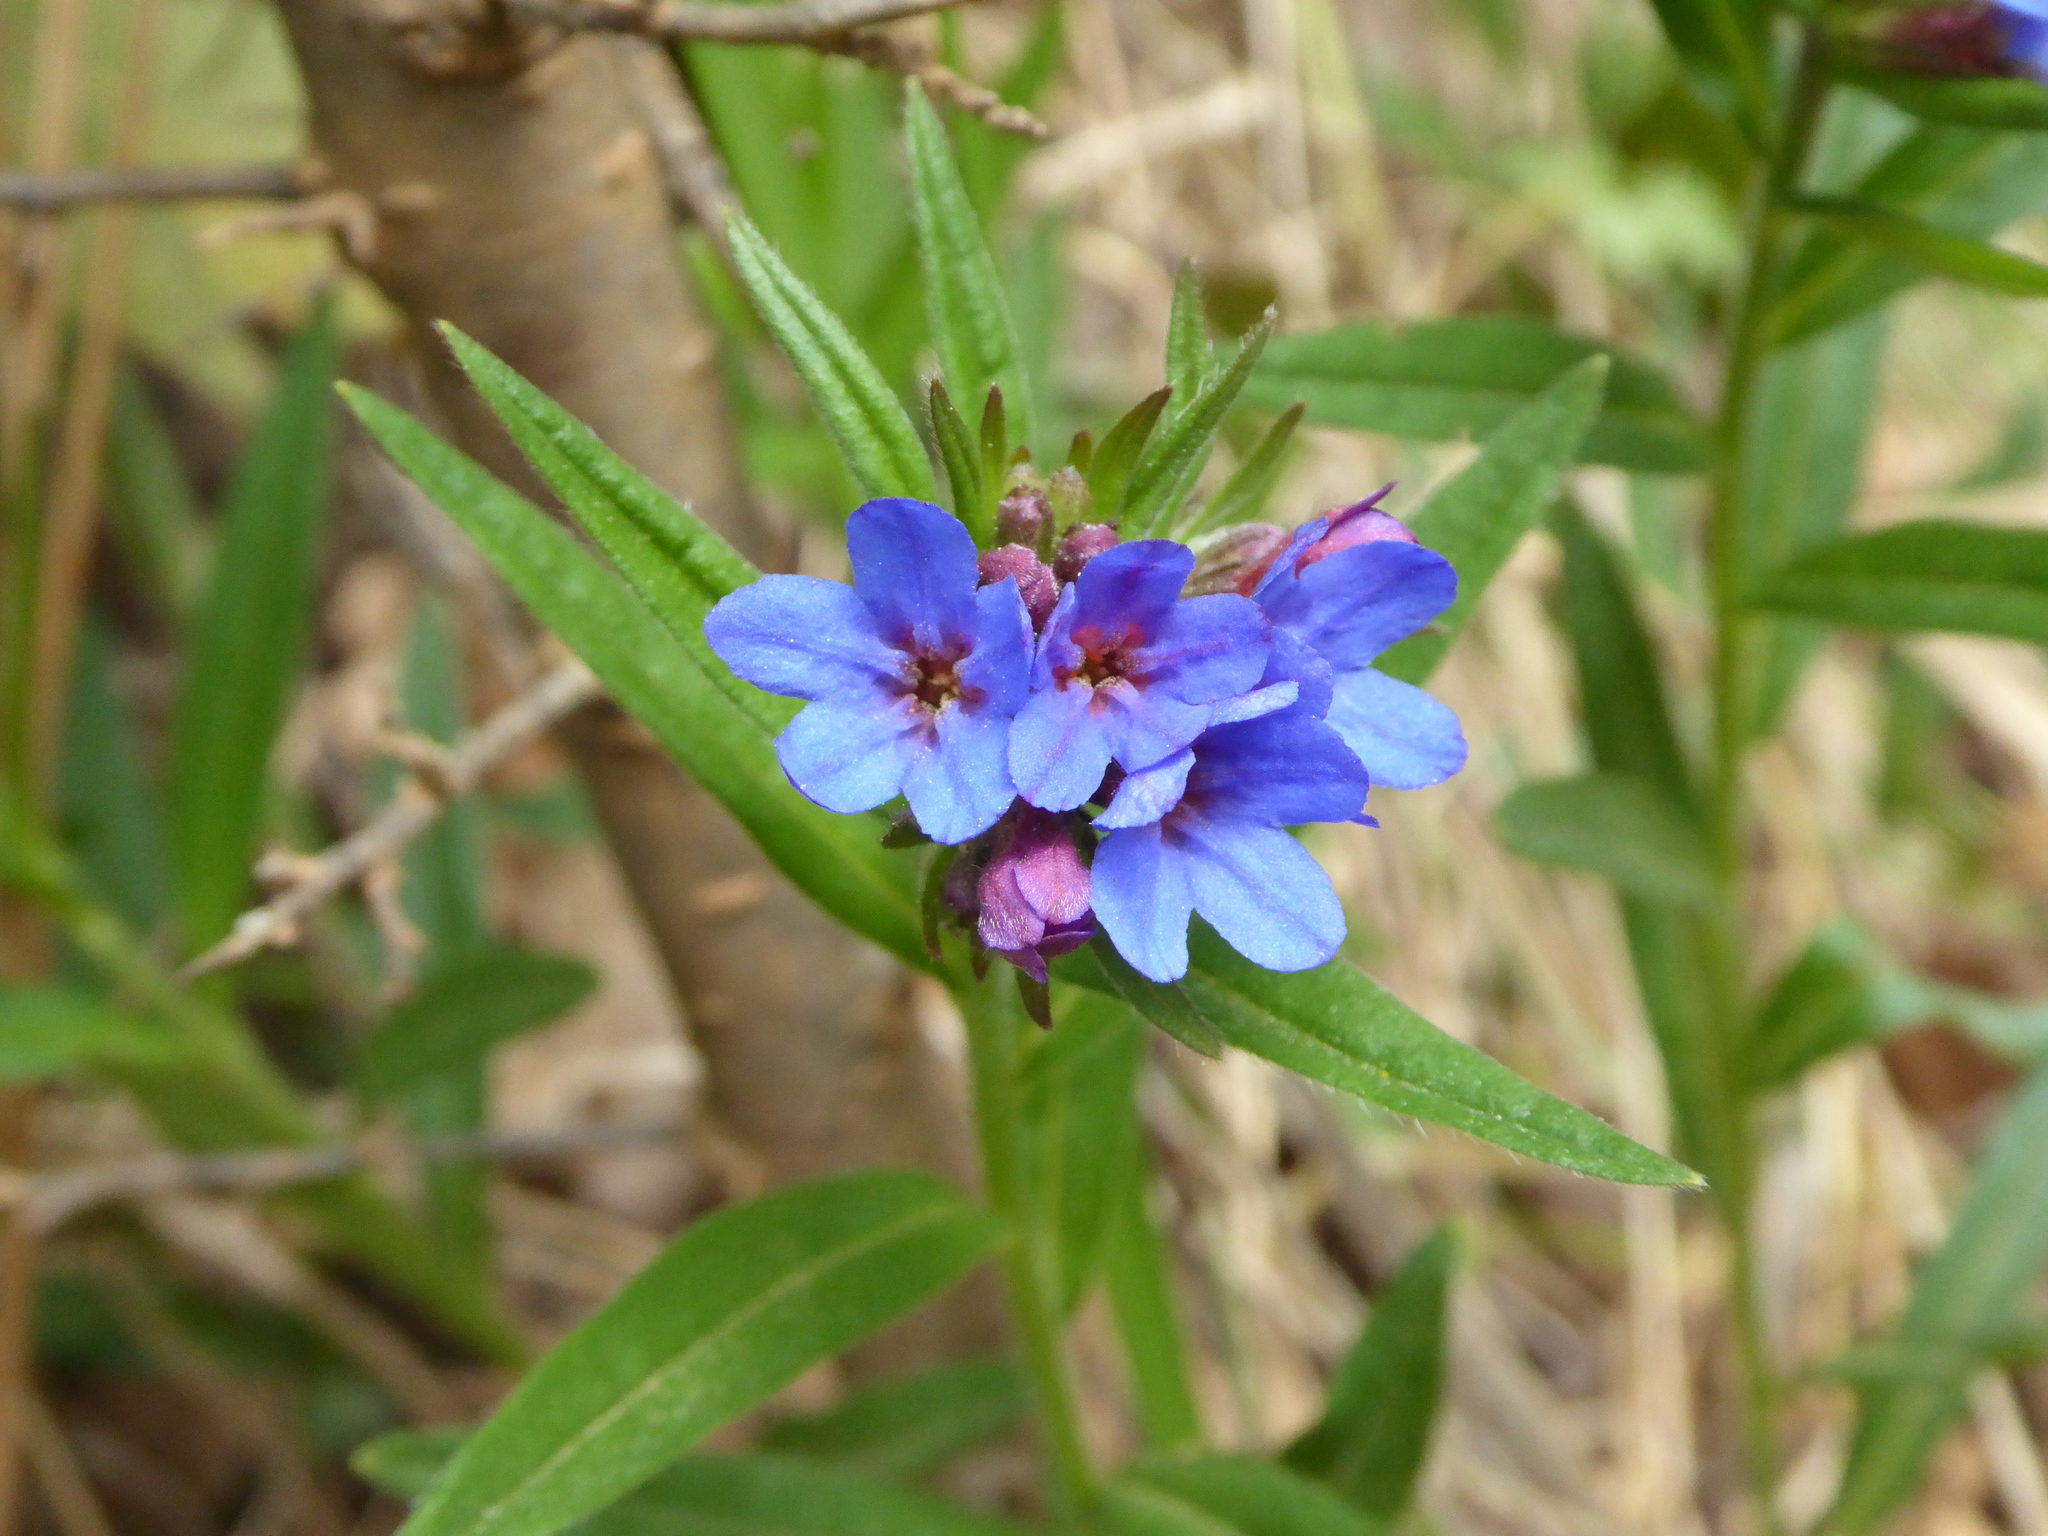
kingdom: Plantae
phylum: Tracheophyta
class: Magnoliopsida
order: Boraginales
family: Boraginaceae
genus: Aegonychon
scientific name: Aegonychon purpurocaeruleum
